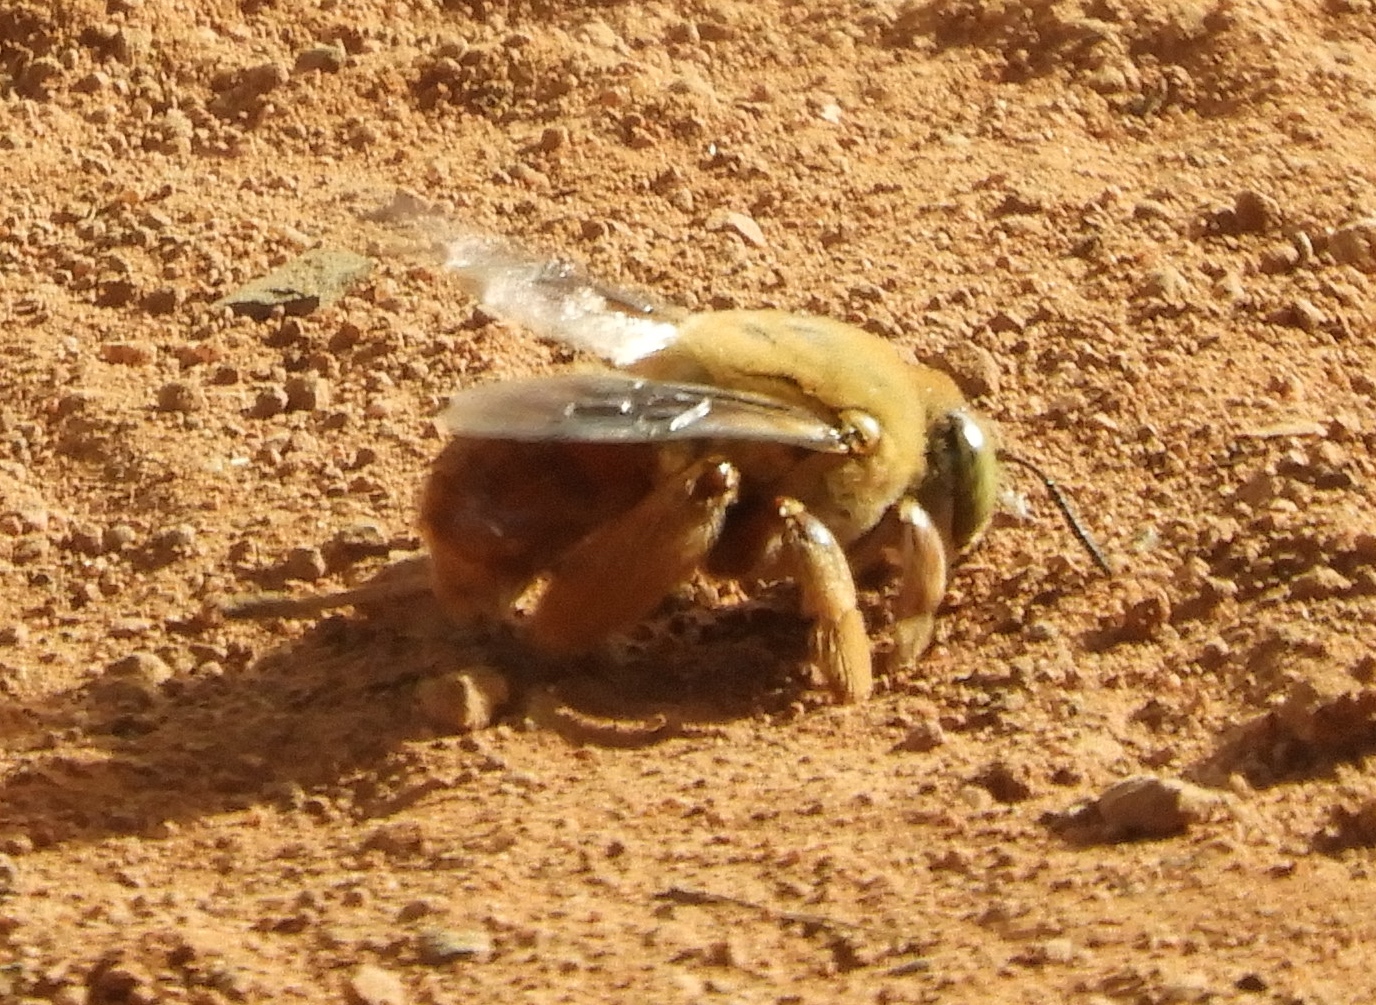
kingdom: Animalia
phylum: Arthropoda
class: Insecta
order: Hymenoptera
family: Apidae
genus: Centris
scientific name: Centris
